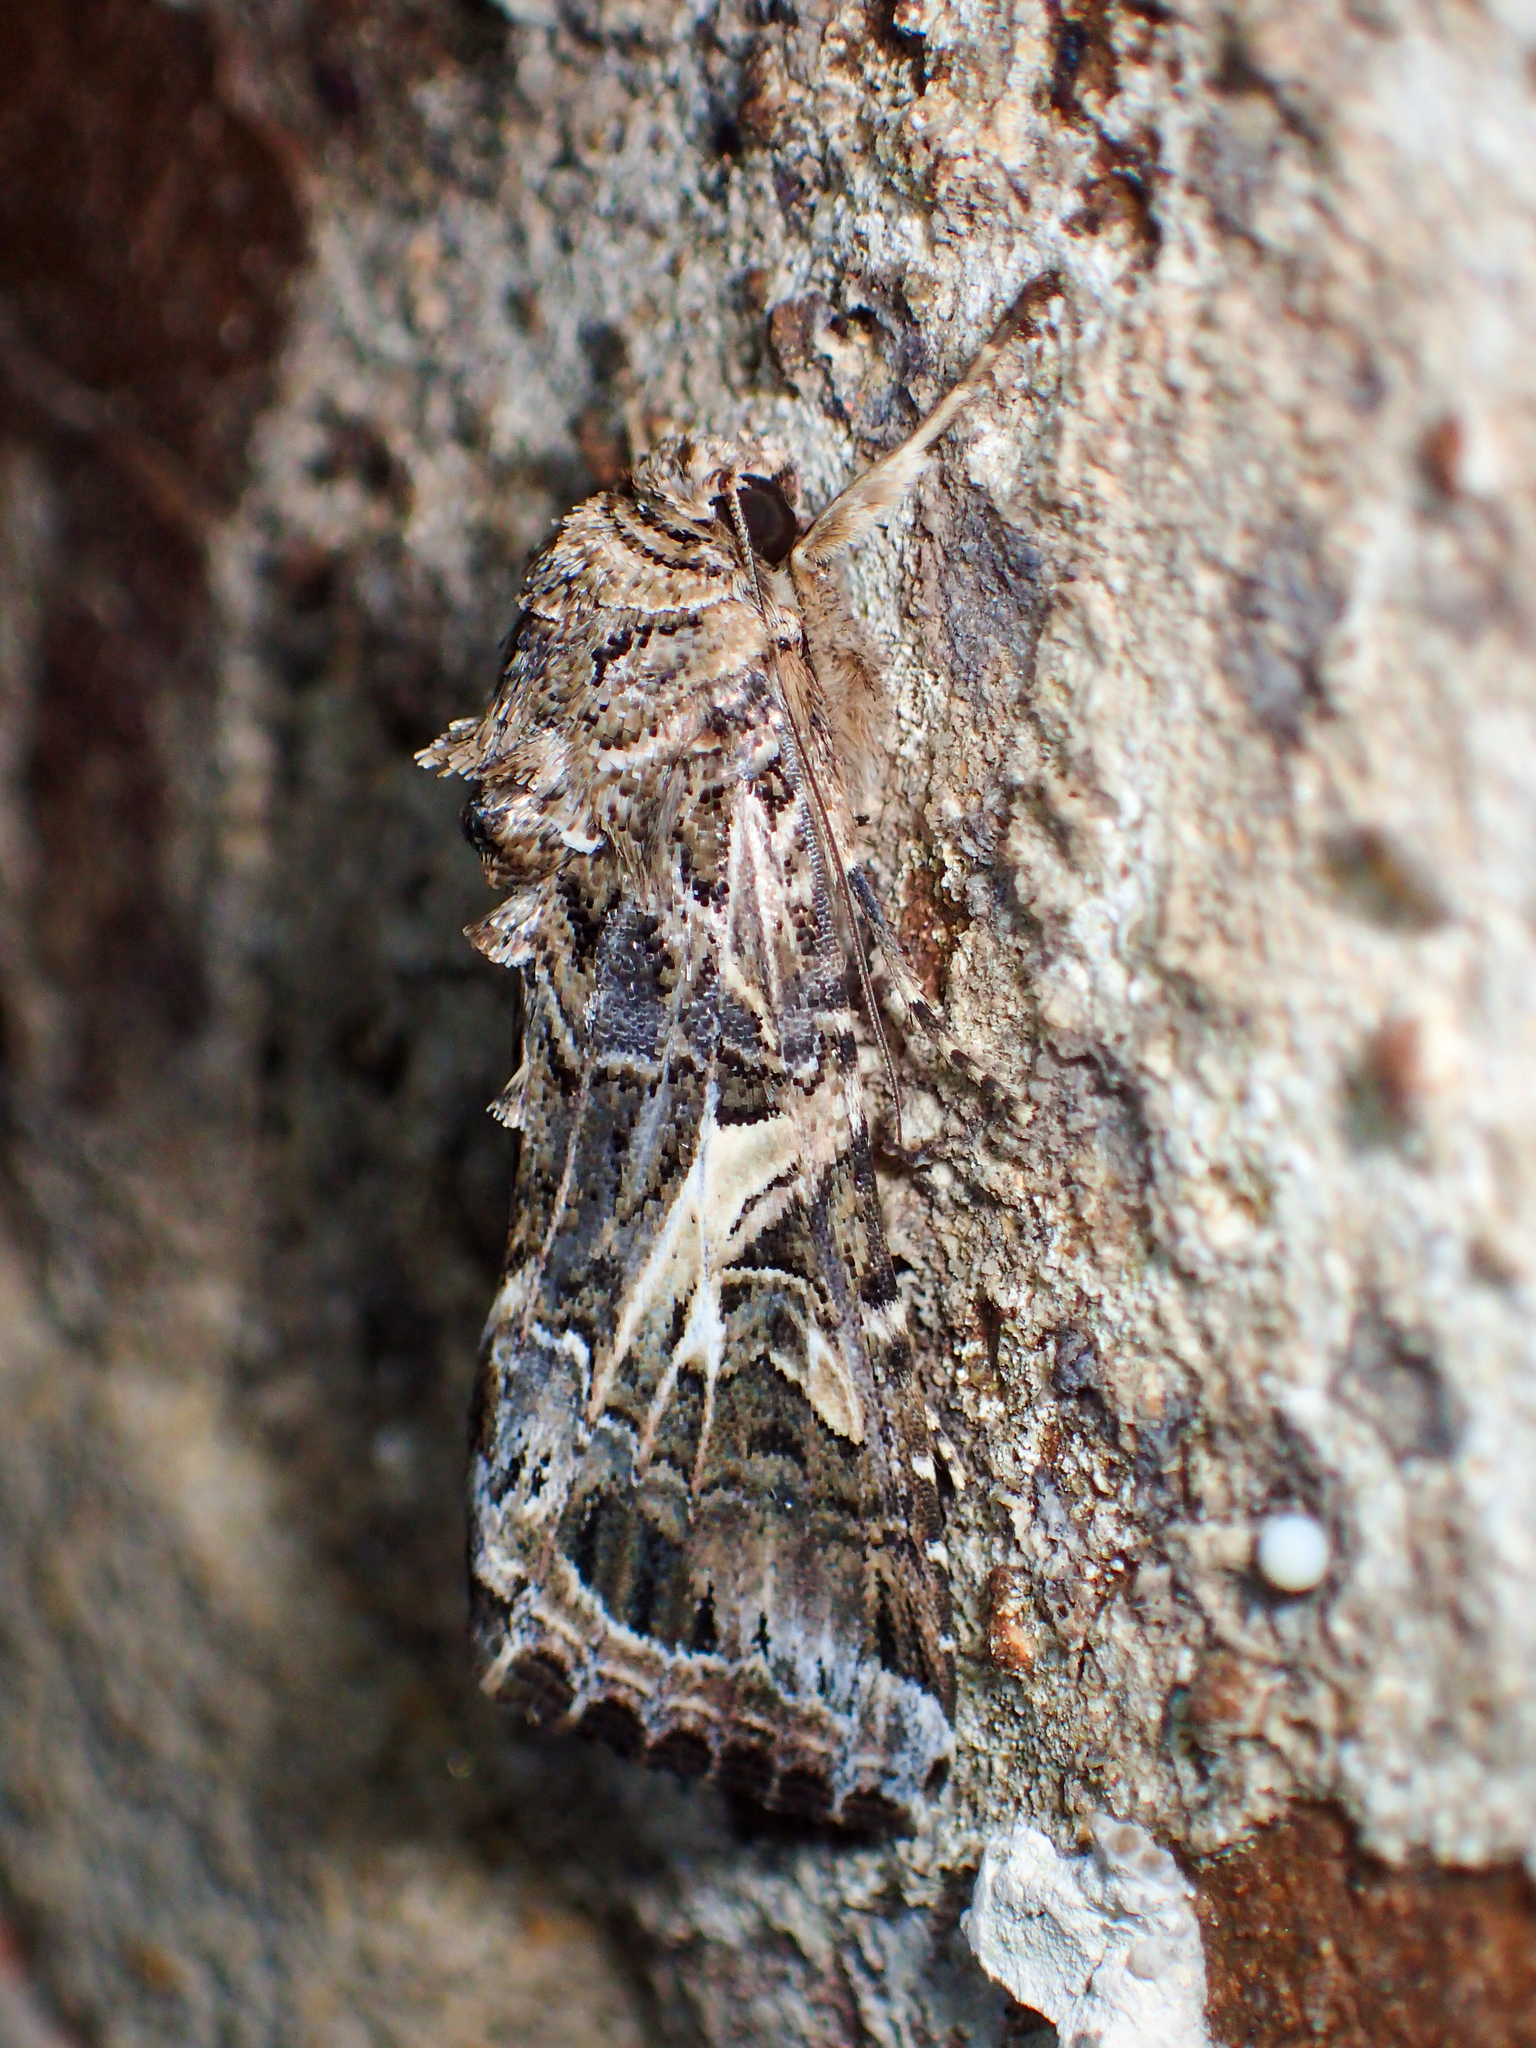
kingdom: Animalia
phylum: Arthropoda
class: Insecta
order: Lepidoptera
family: Noctuidae
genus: Spodoptera
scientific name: Spodoptera ornithogalli
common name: Yellow-striped armyworm
